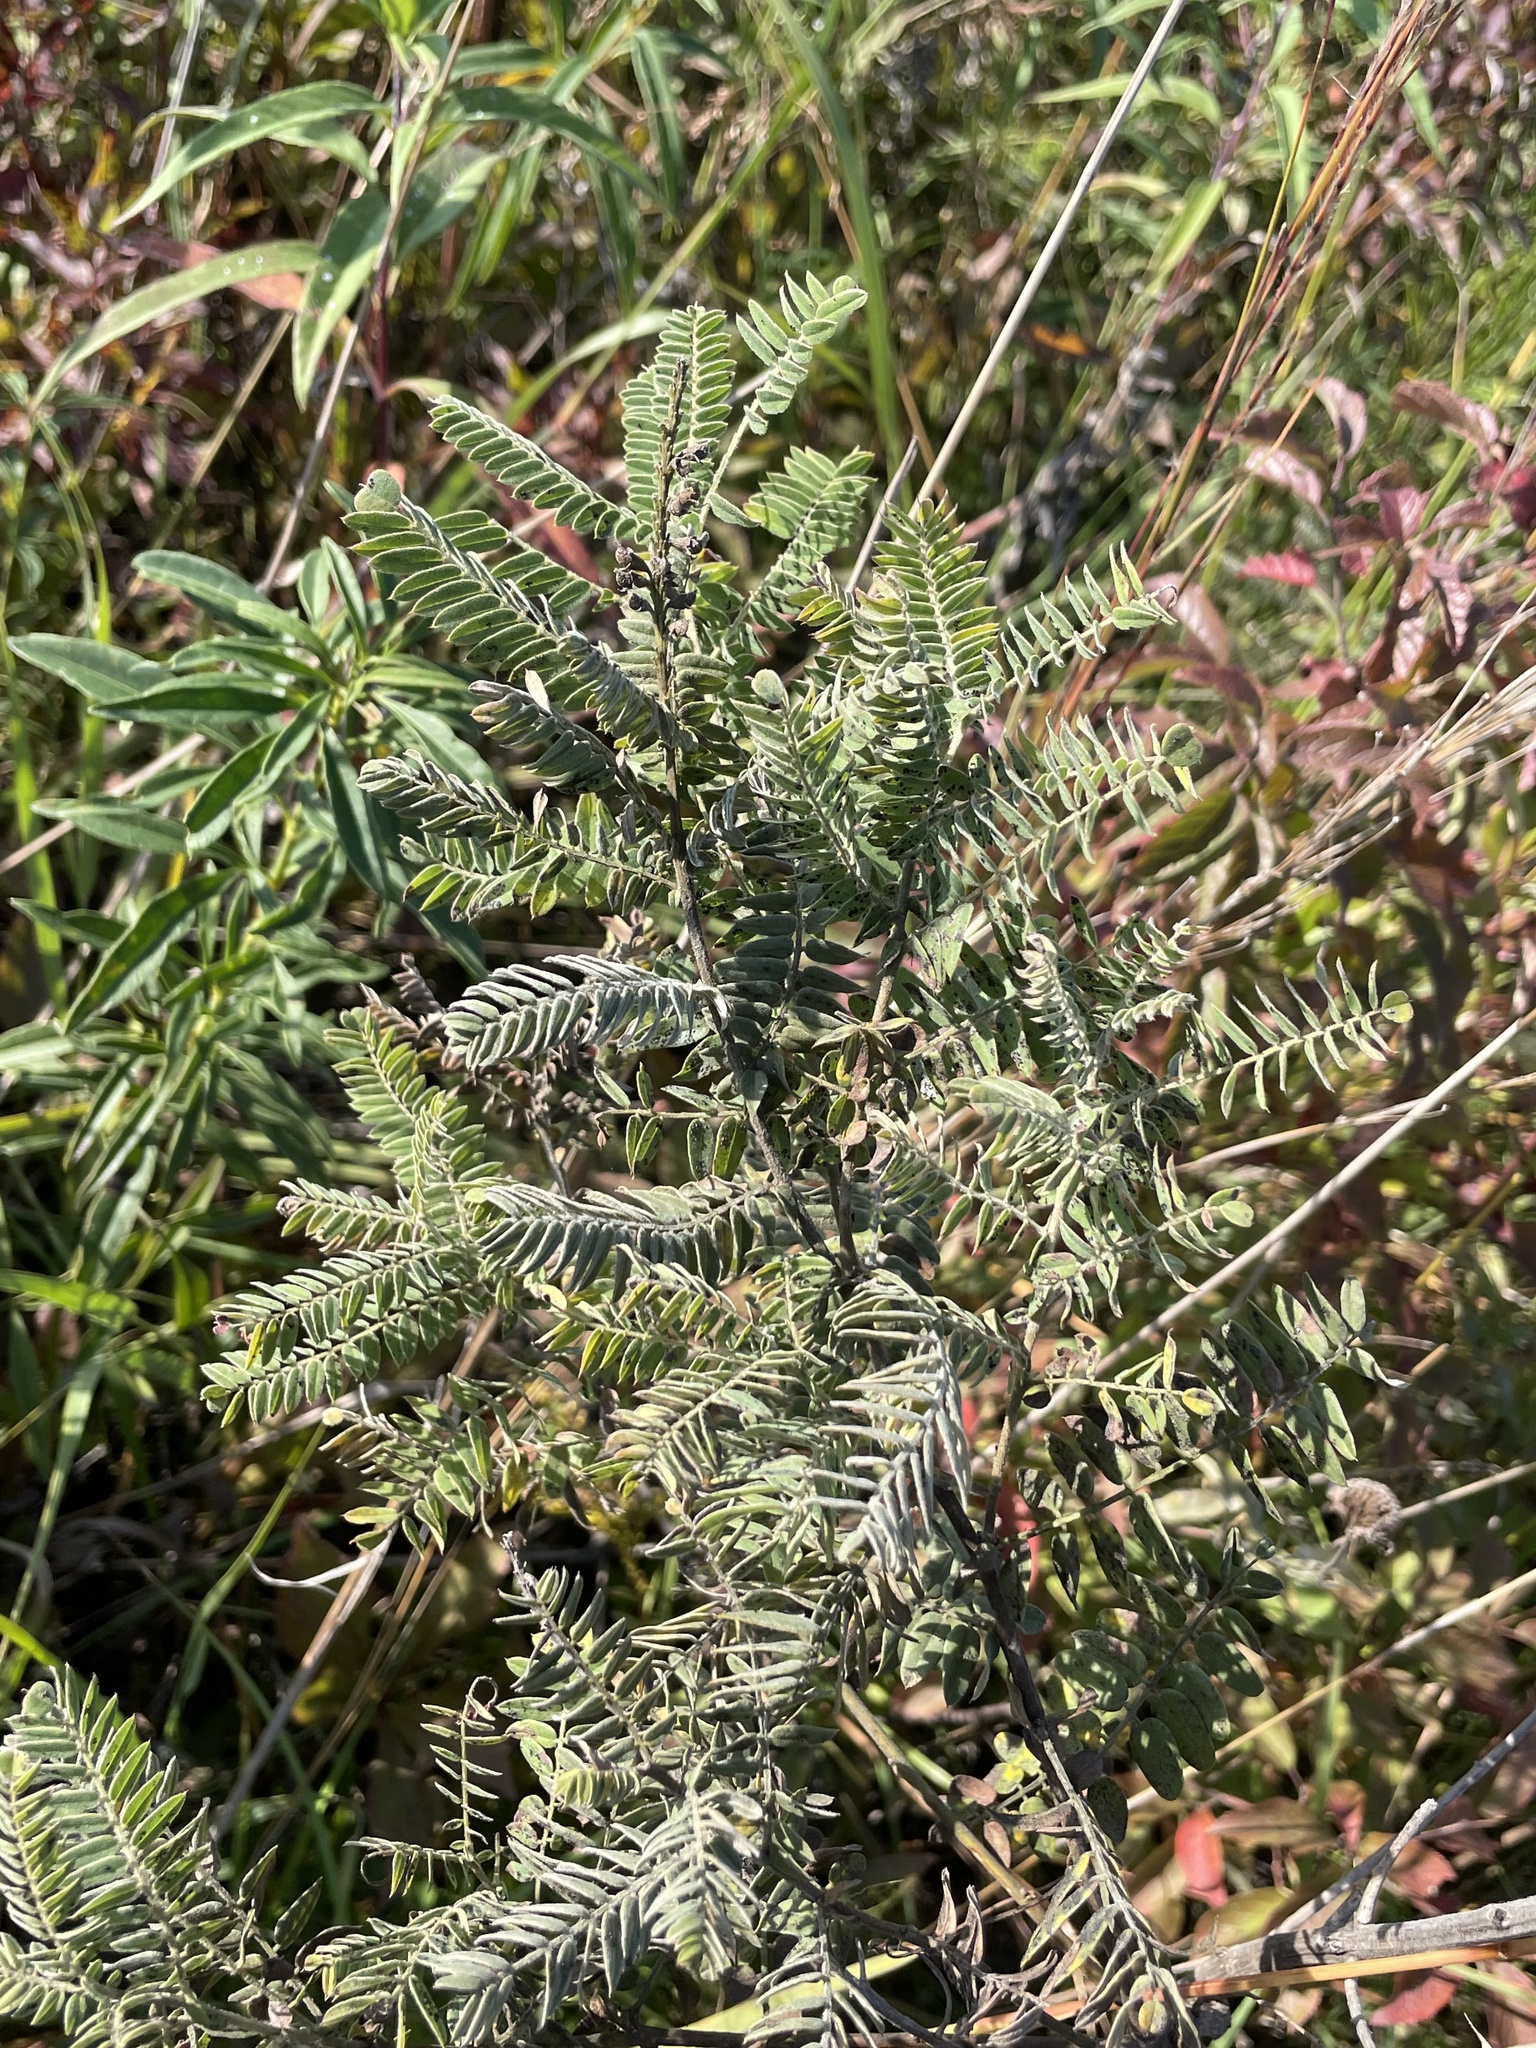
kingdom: Plantae
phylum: Tracheophyta
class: Magnoliopsida
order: Fabales
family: Fabaceae
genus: Amorpha
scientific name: Amorpha canescens
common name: Leadplant
